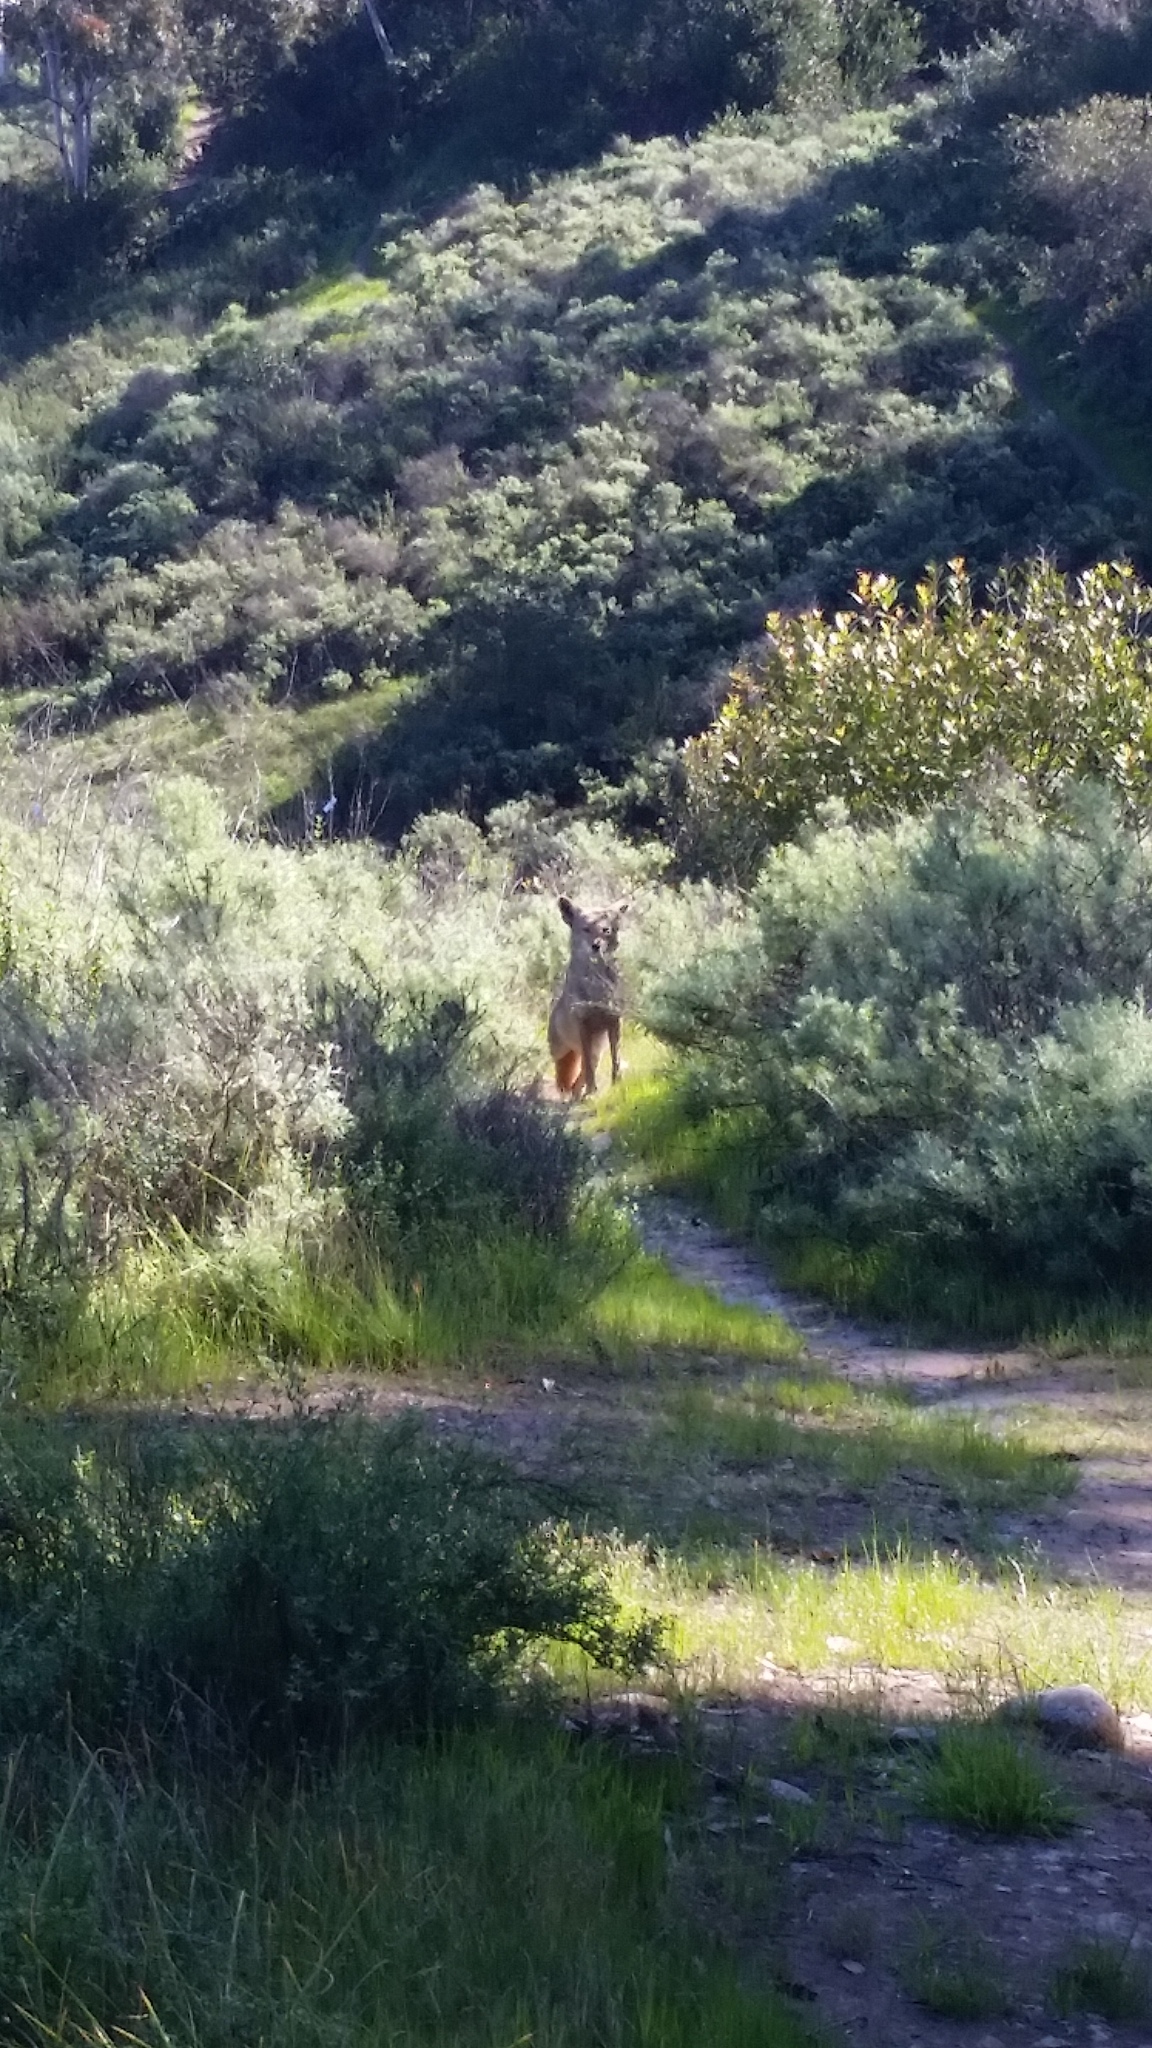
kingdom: Animalia
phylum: Chordata
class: Mammalia
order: Carnivora
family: Canidae
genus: Canis
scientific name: Canis latrans
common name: Coyote
